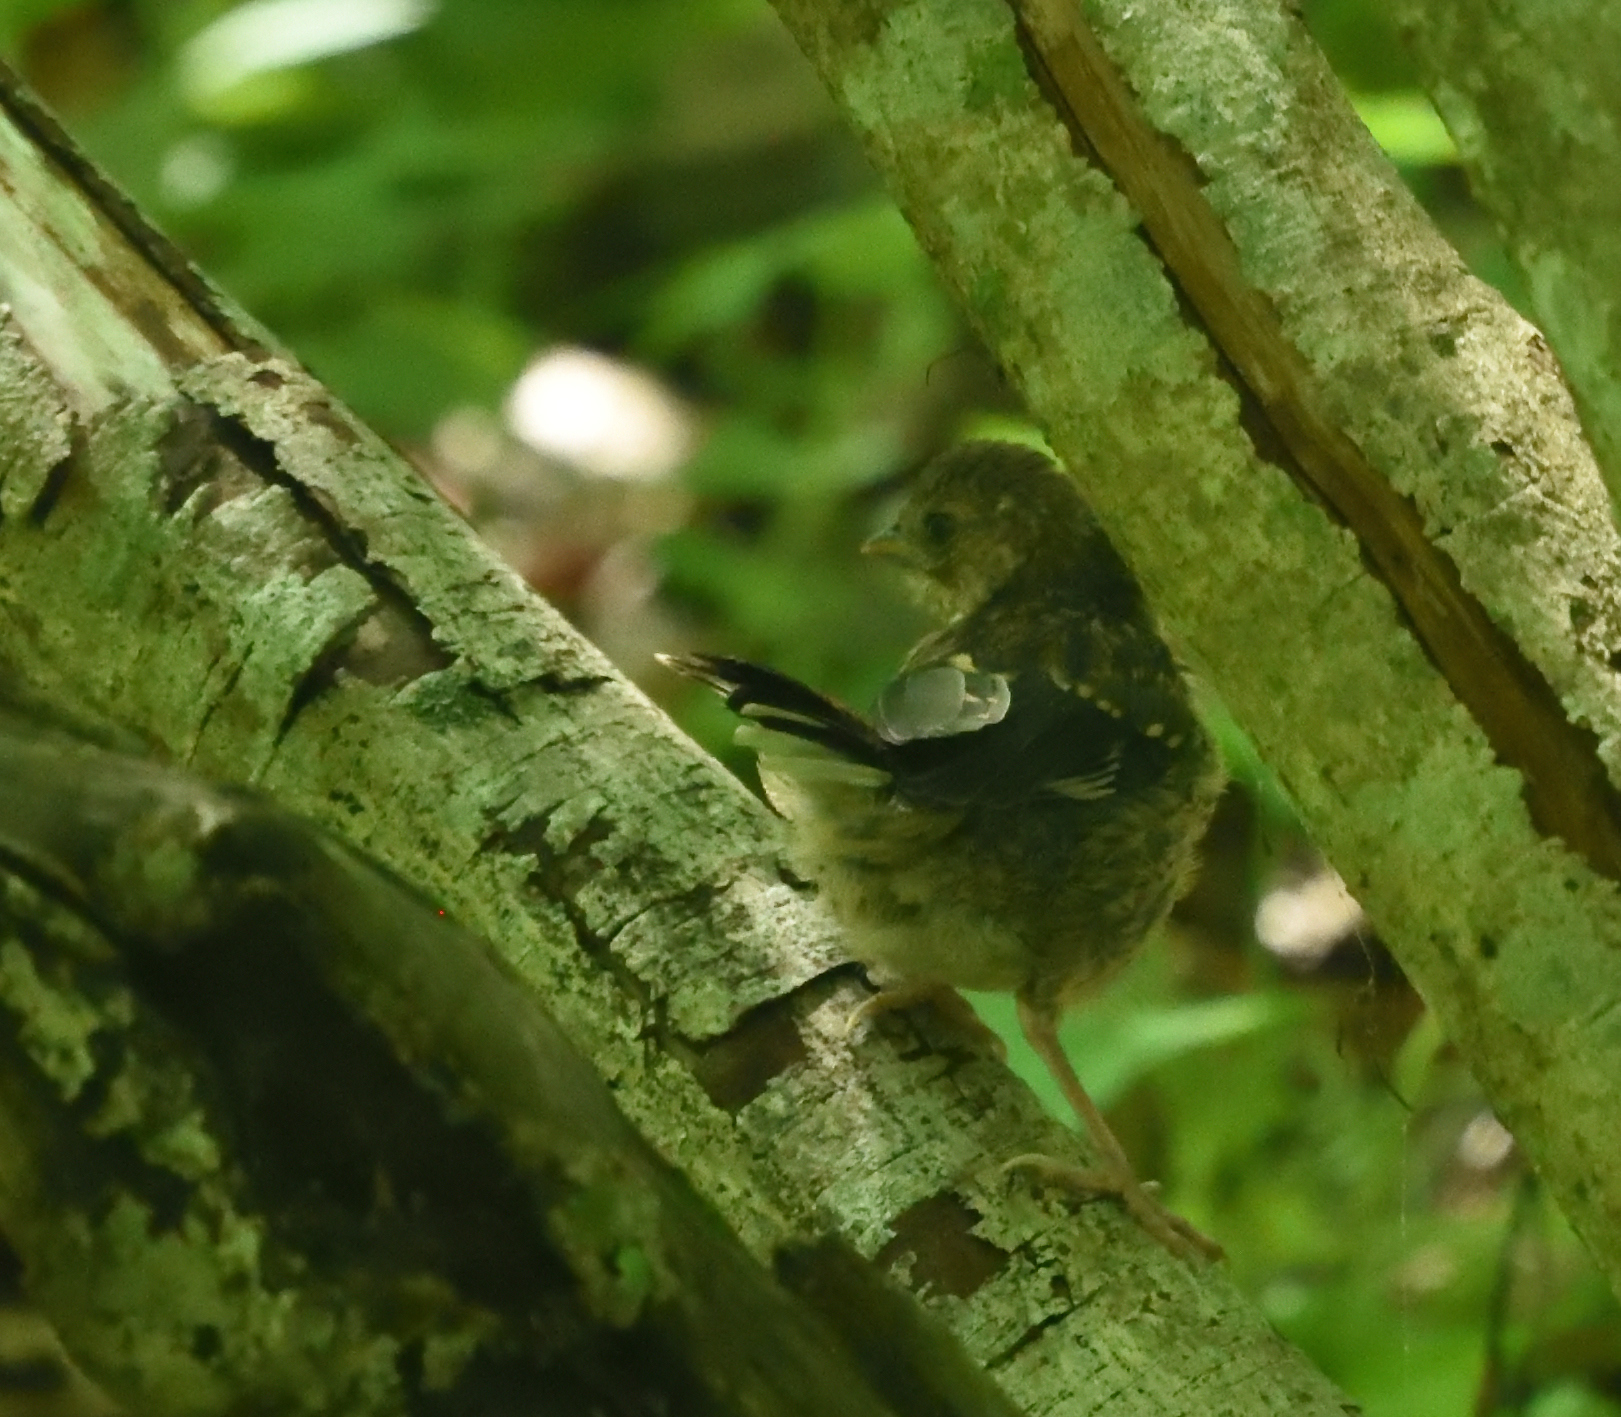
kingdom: Animalia
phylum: Chordata
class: Aves
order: Passeriformes
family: Passerellidae
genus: Pipilo
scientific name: Pipilo erythrophthalmus
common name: Eastern towhee
